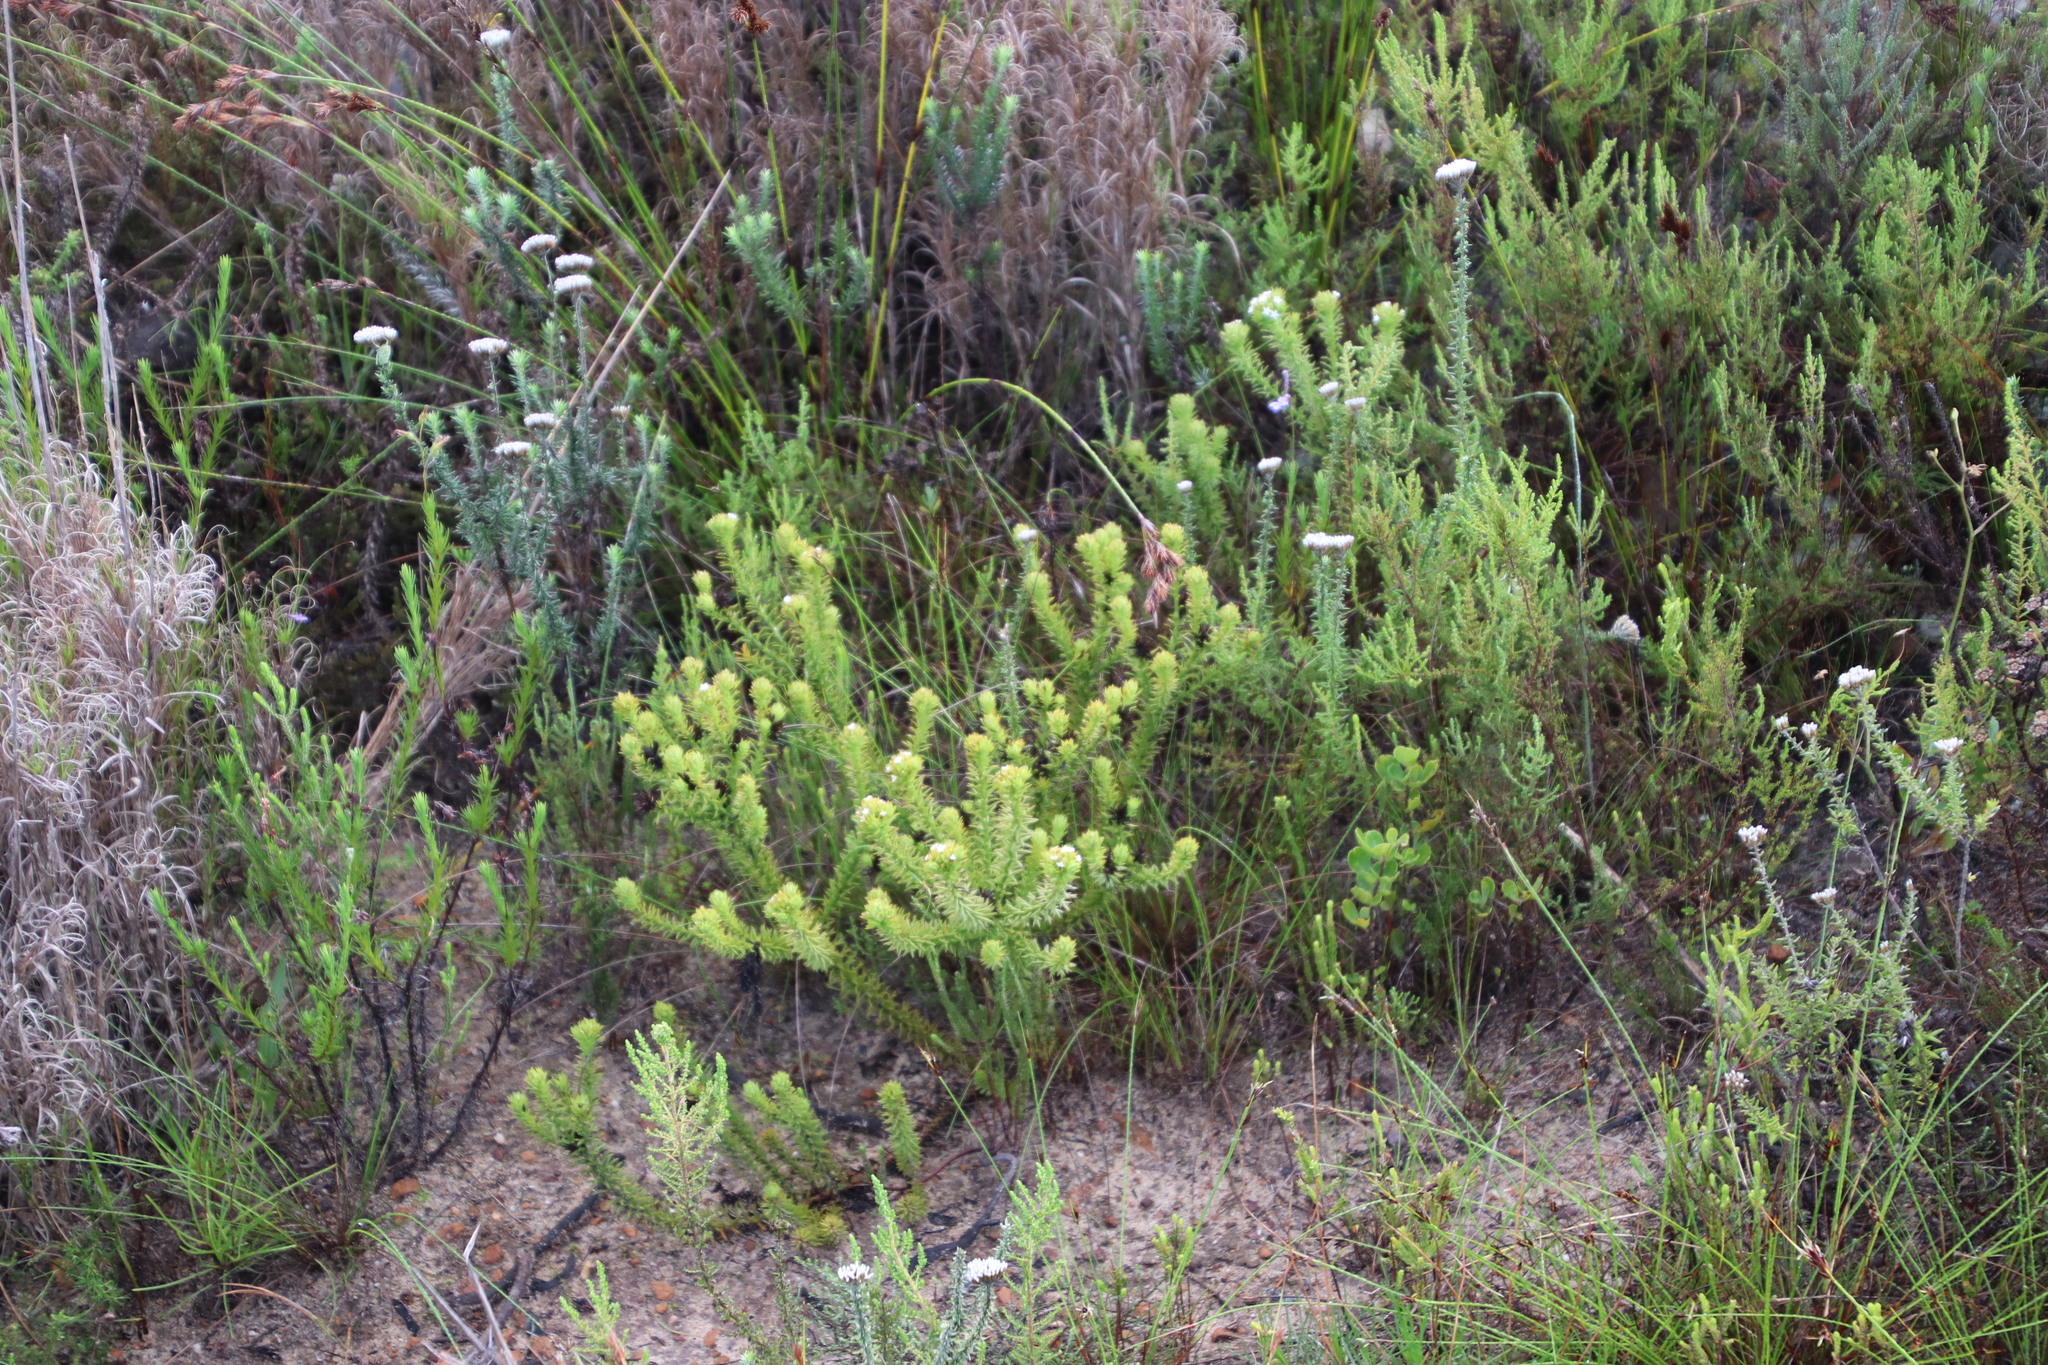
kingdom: Plantae
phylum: Tracheophyta
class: Magnoliopsida
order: Santalales
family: Thesiaceae
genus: Thesium
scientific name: Thesium viridifolium
